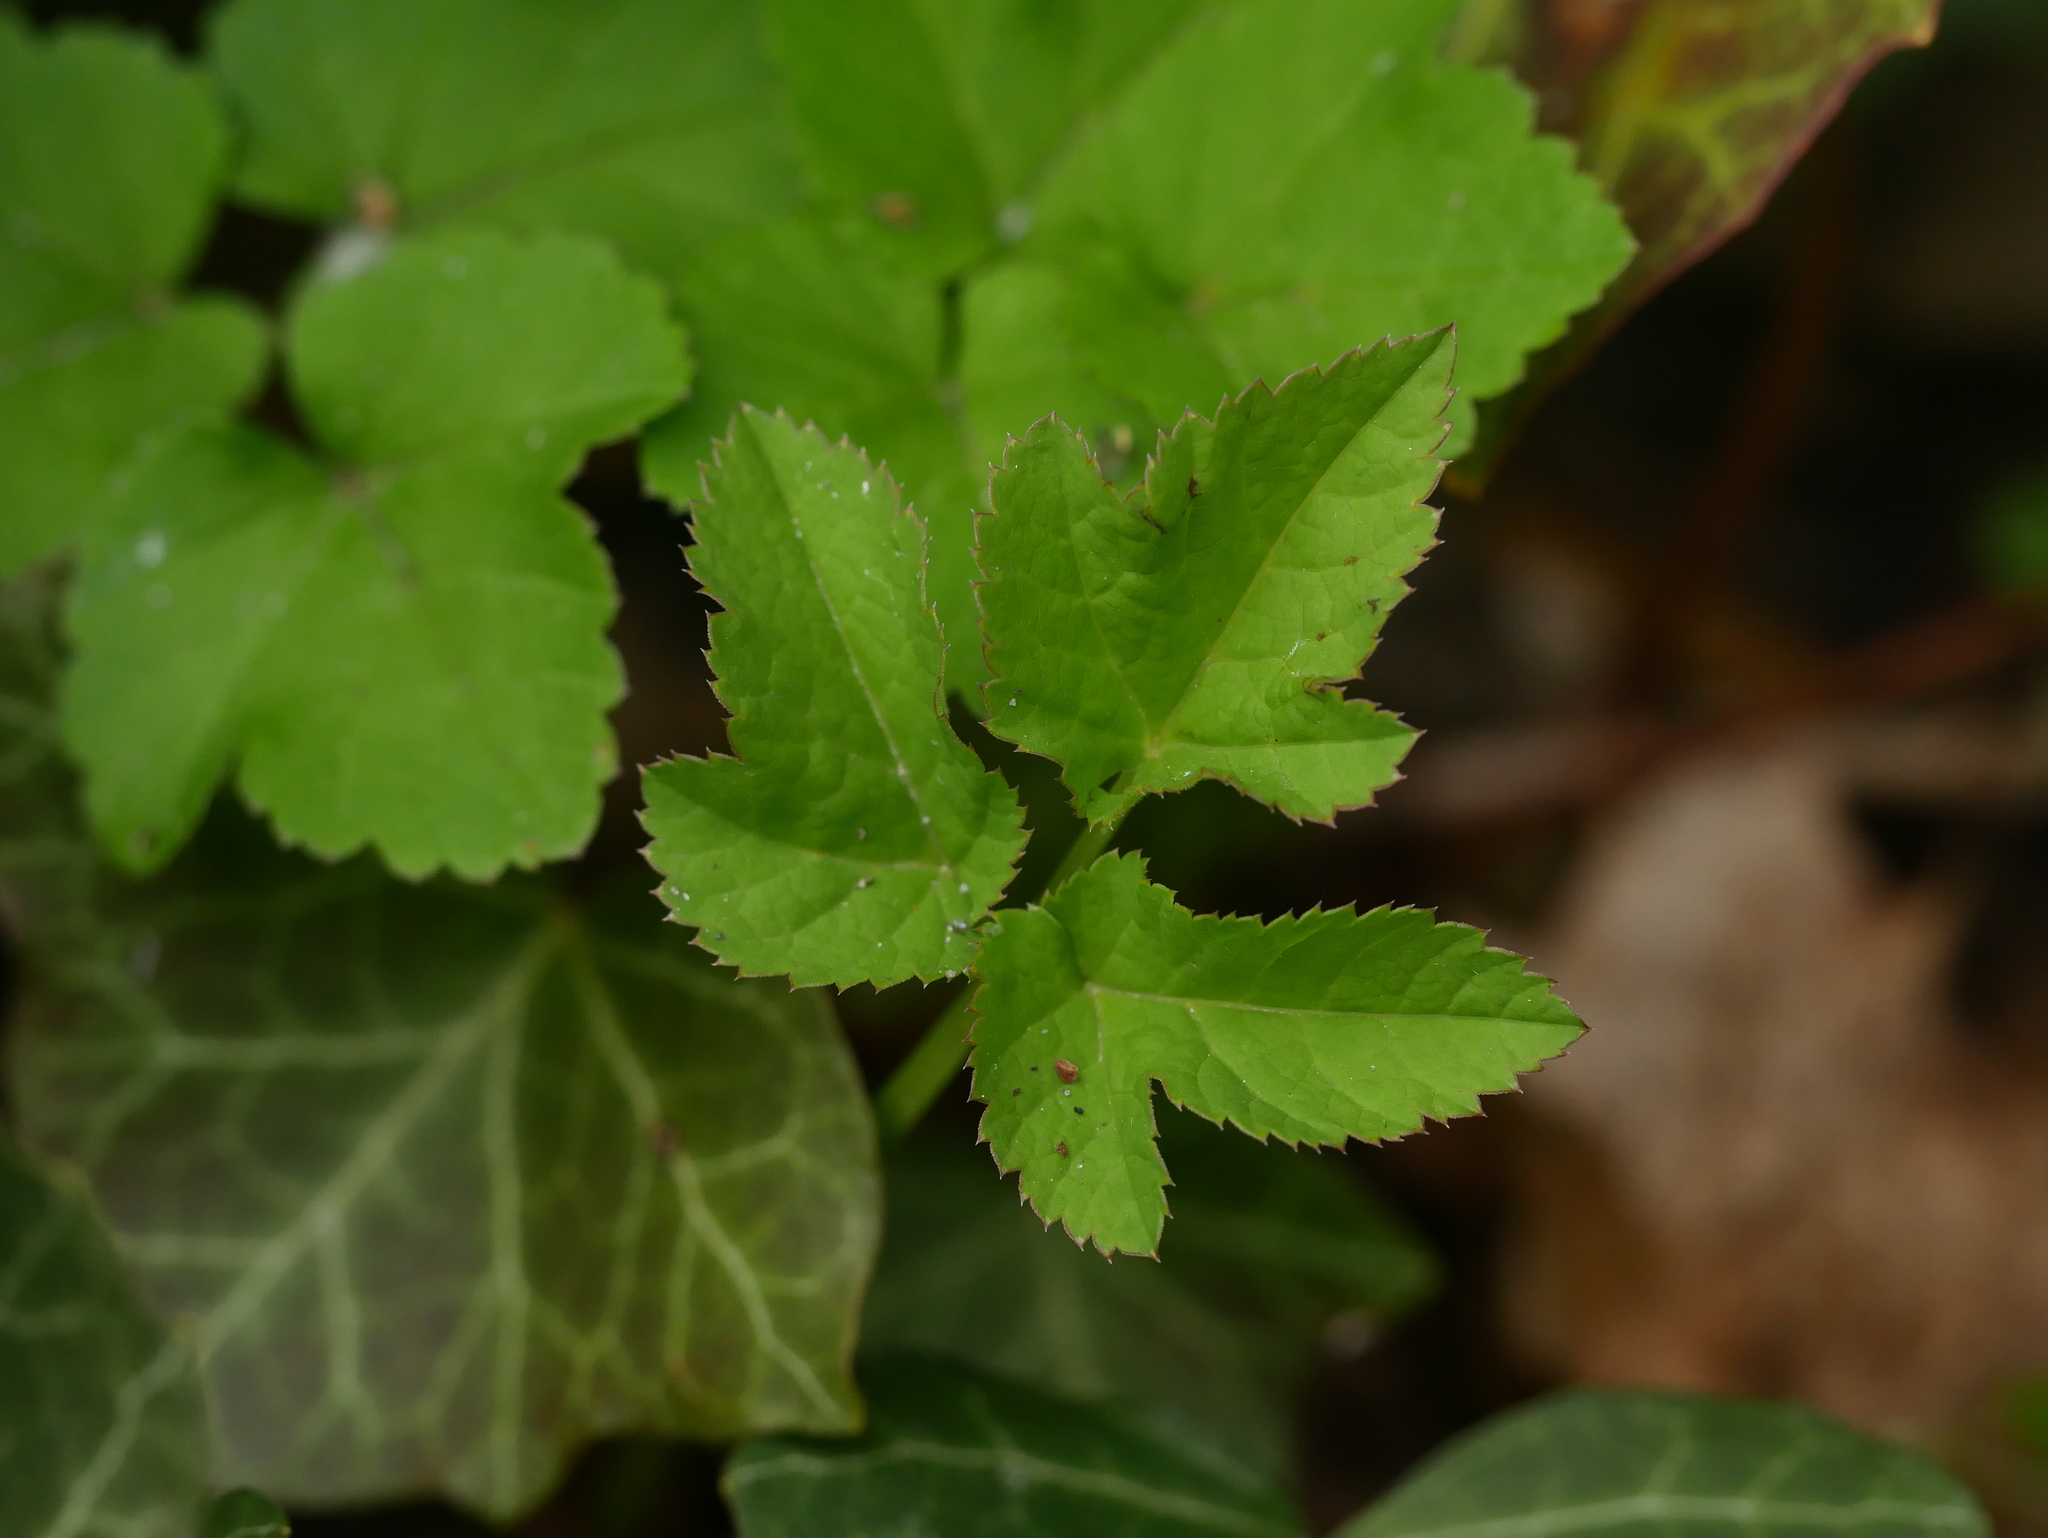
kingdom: Plantae
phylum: Tracheophyta
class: Magnoliopsida
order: Apiales
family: Apiaceae
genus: Aegopodium
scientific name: Aegopodium podagraria
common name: Ground-elder
